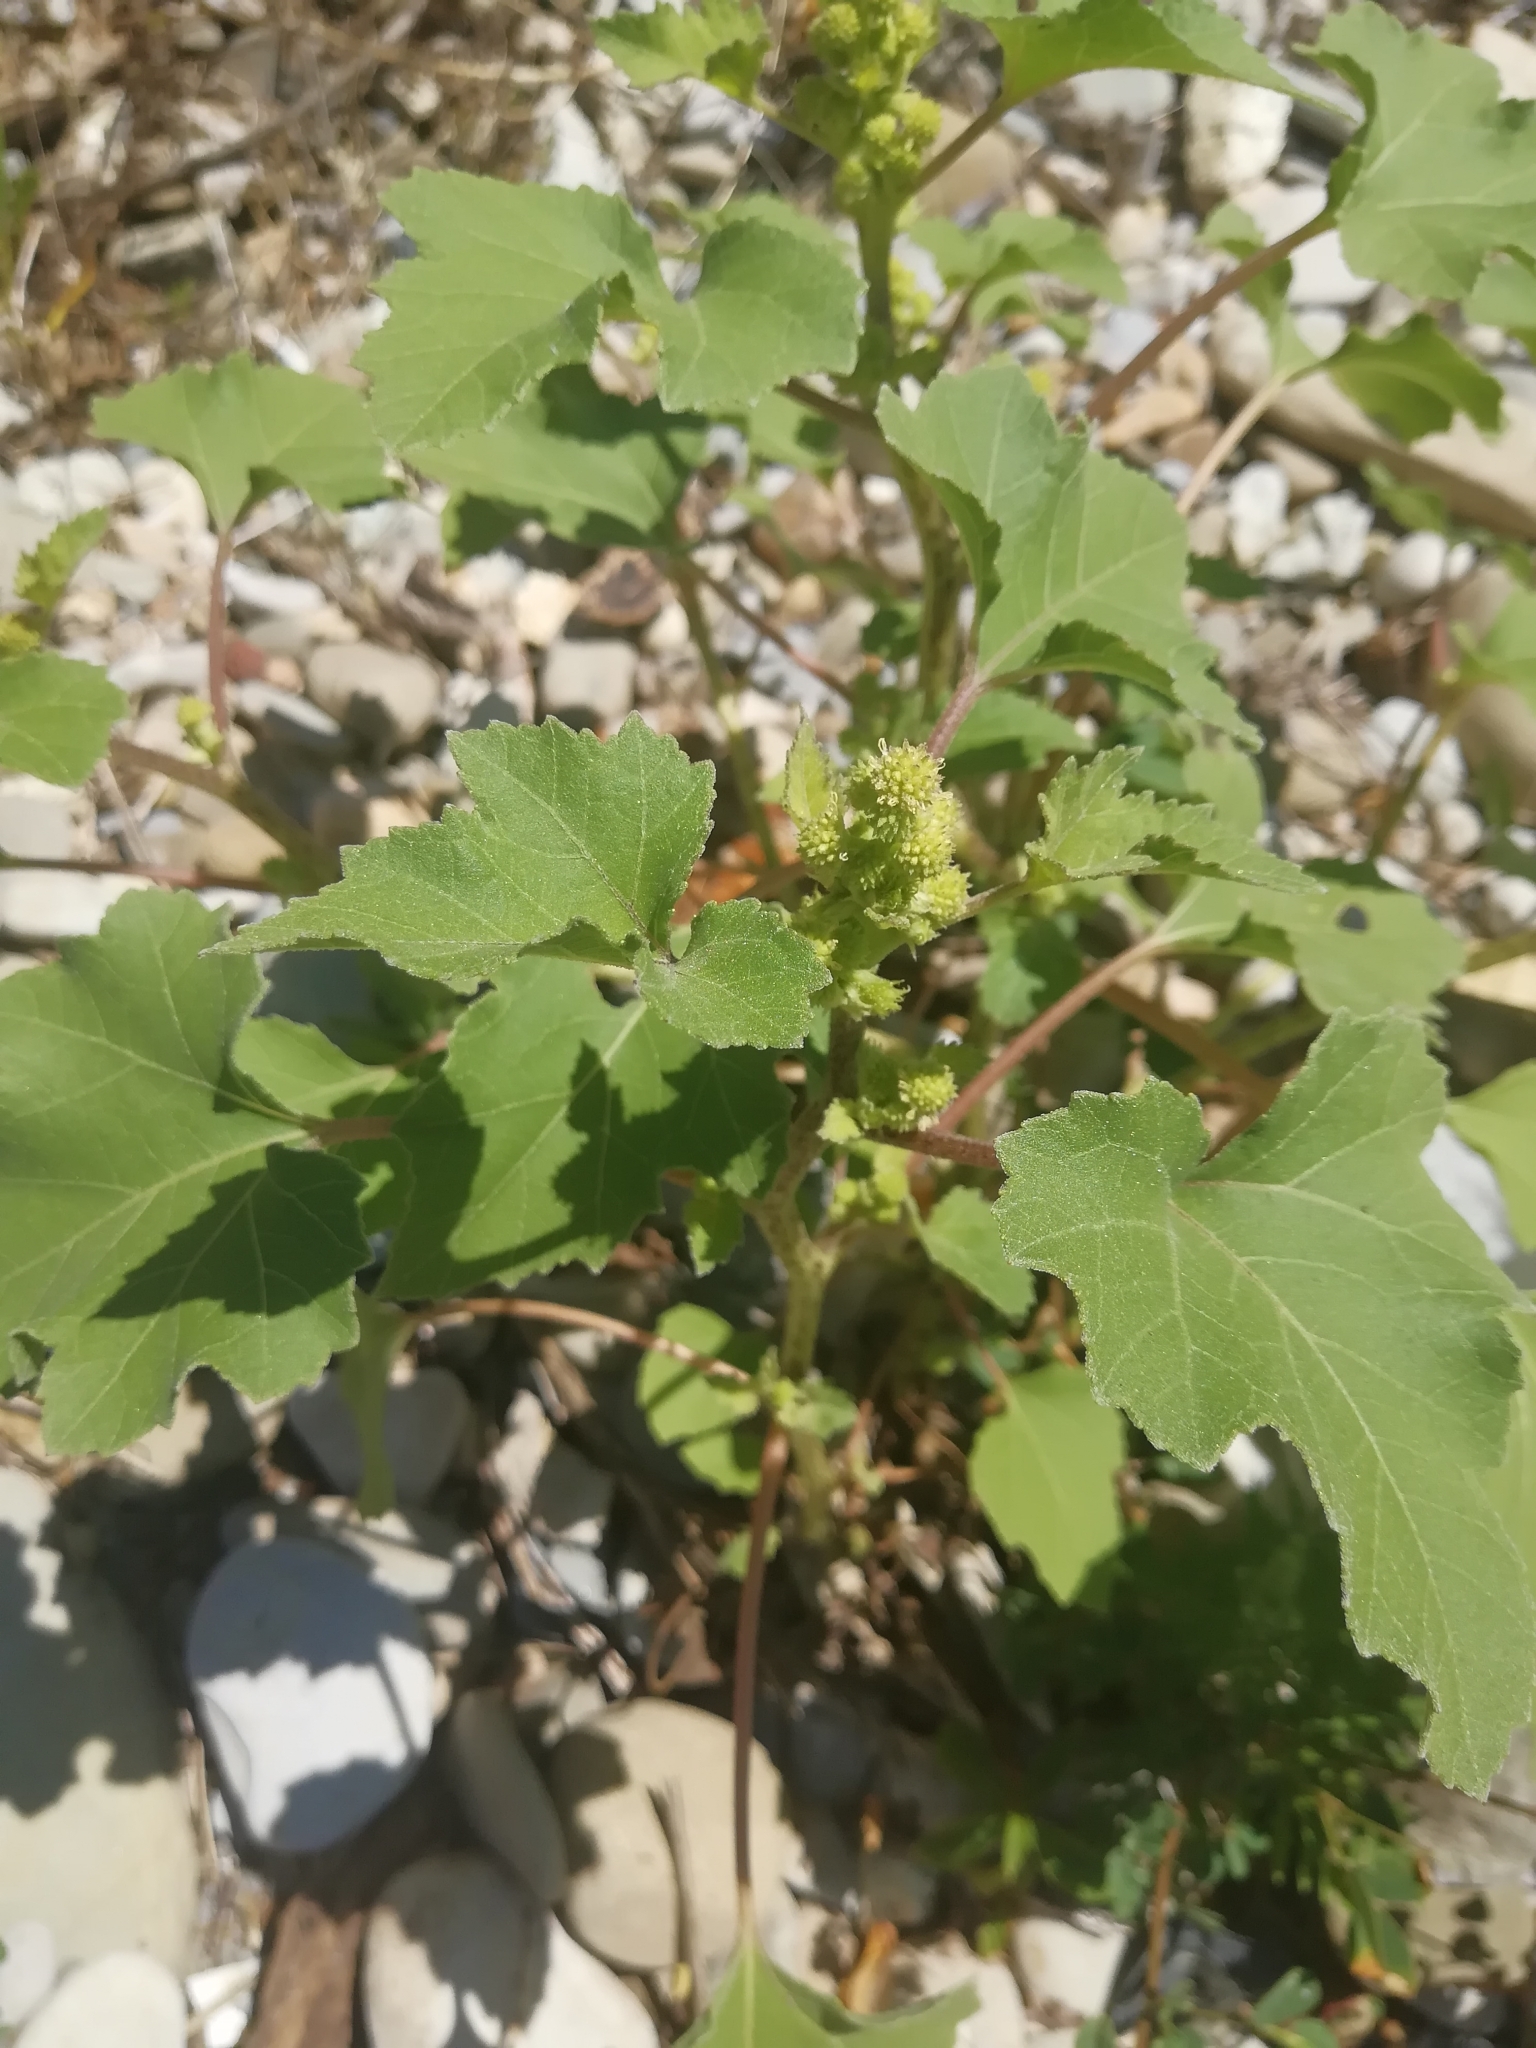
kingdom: Plantae
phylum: Tracheophyta
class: Magnoliopsida
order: Asterales
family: Asteraceae
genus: Xanthium
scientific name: Xanthium strumarium
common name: Rough cocklebur
